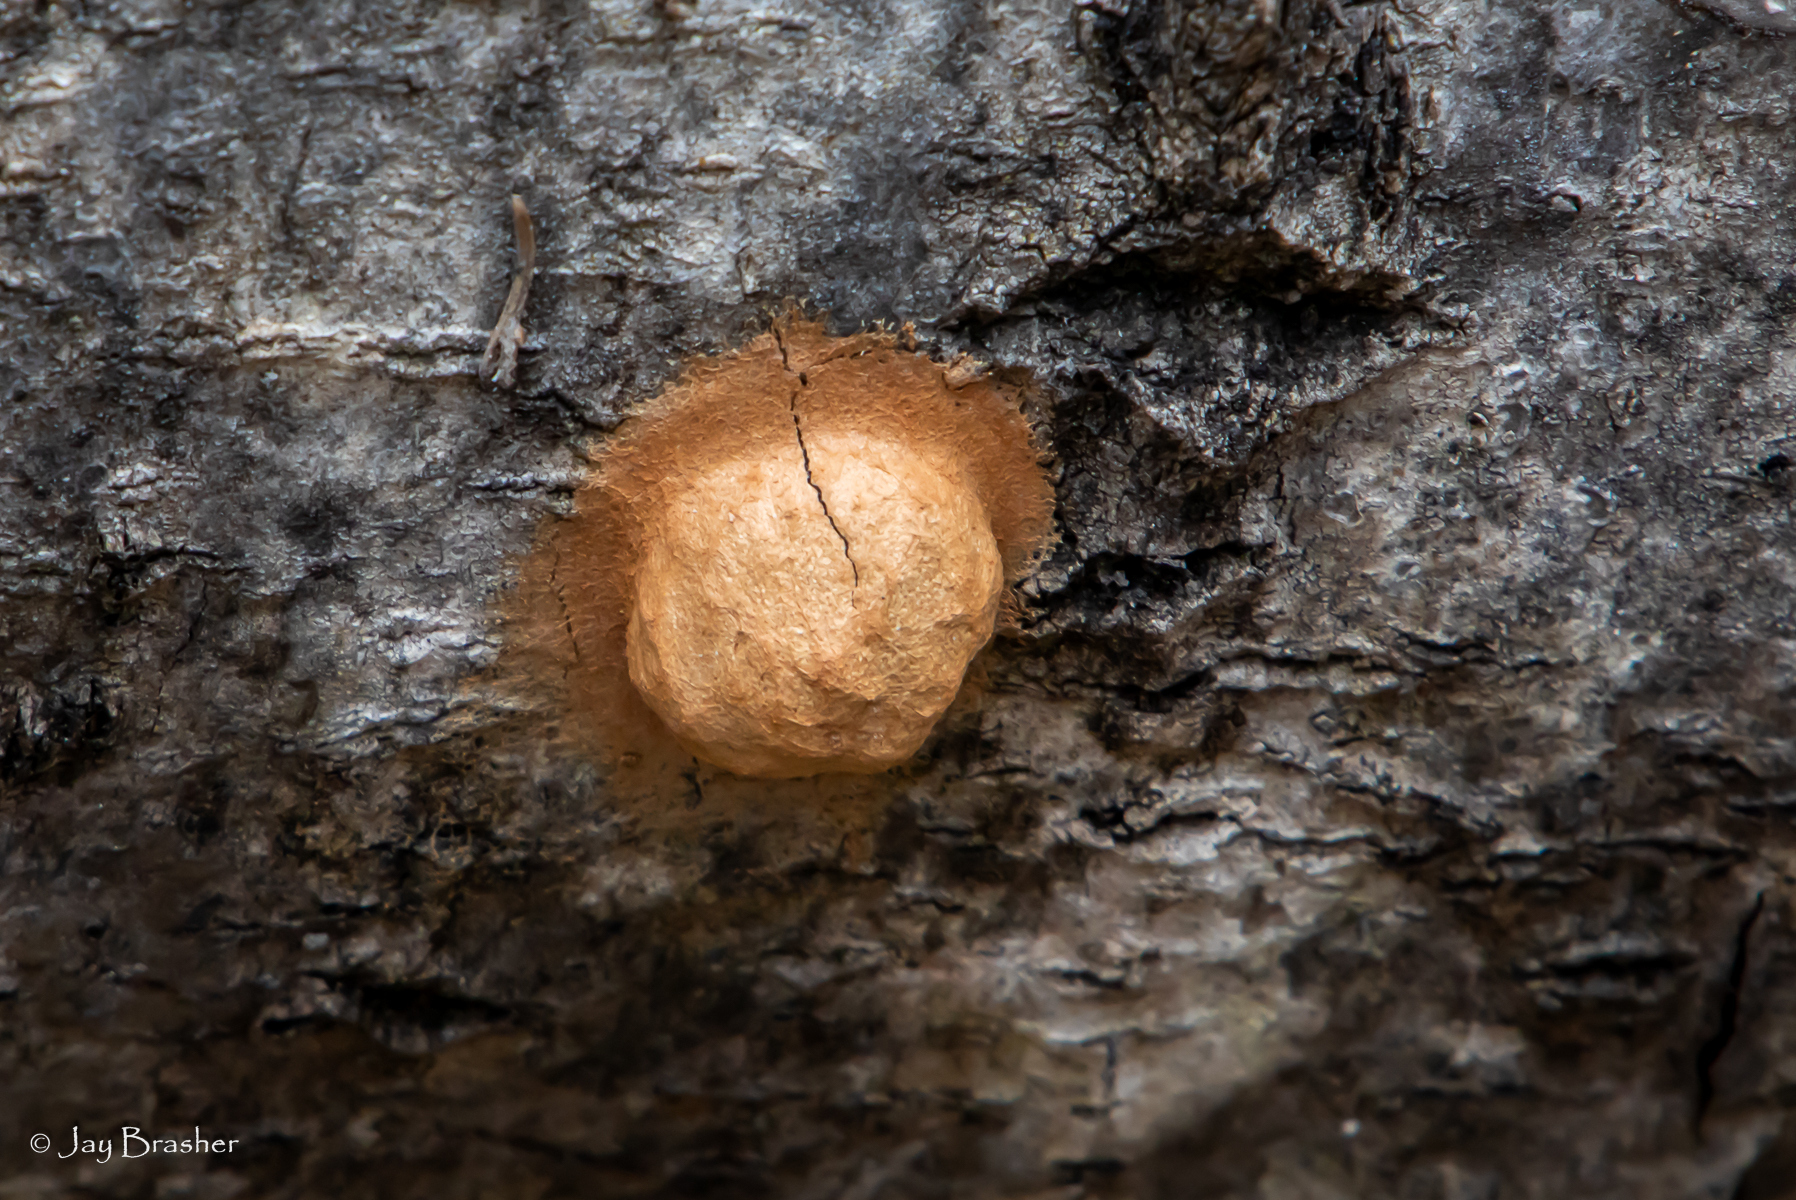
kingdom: Protozoa
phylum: Mycetozoa
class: Myxomycetes
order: Cribrariales
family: Tubiferaceae
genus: Reticularia
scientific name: Reticularia lycoperdon
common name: False puffball
